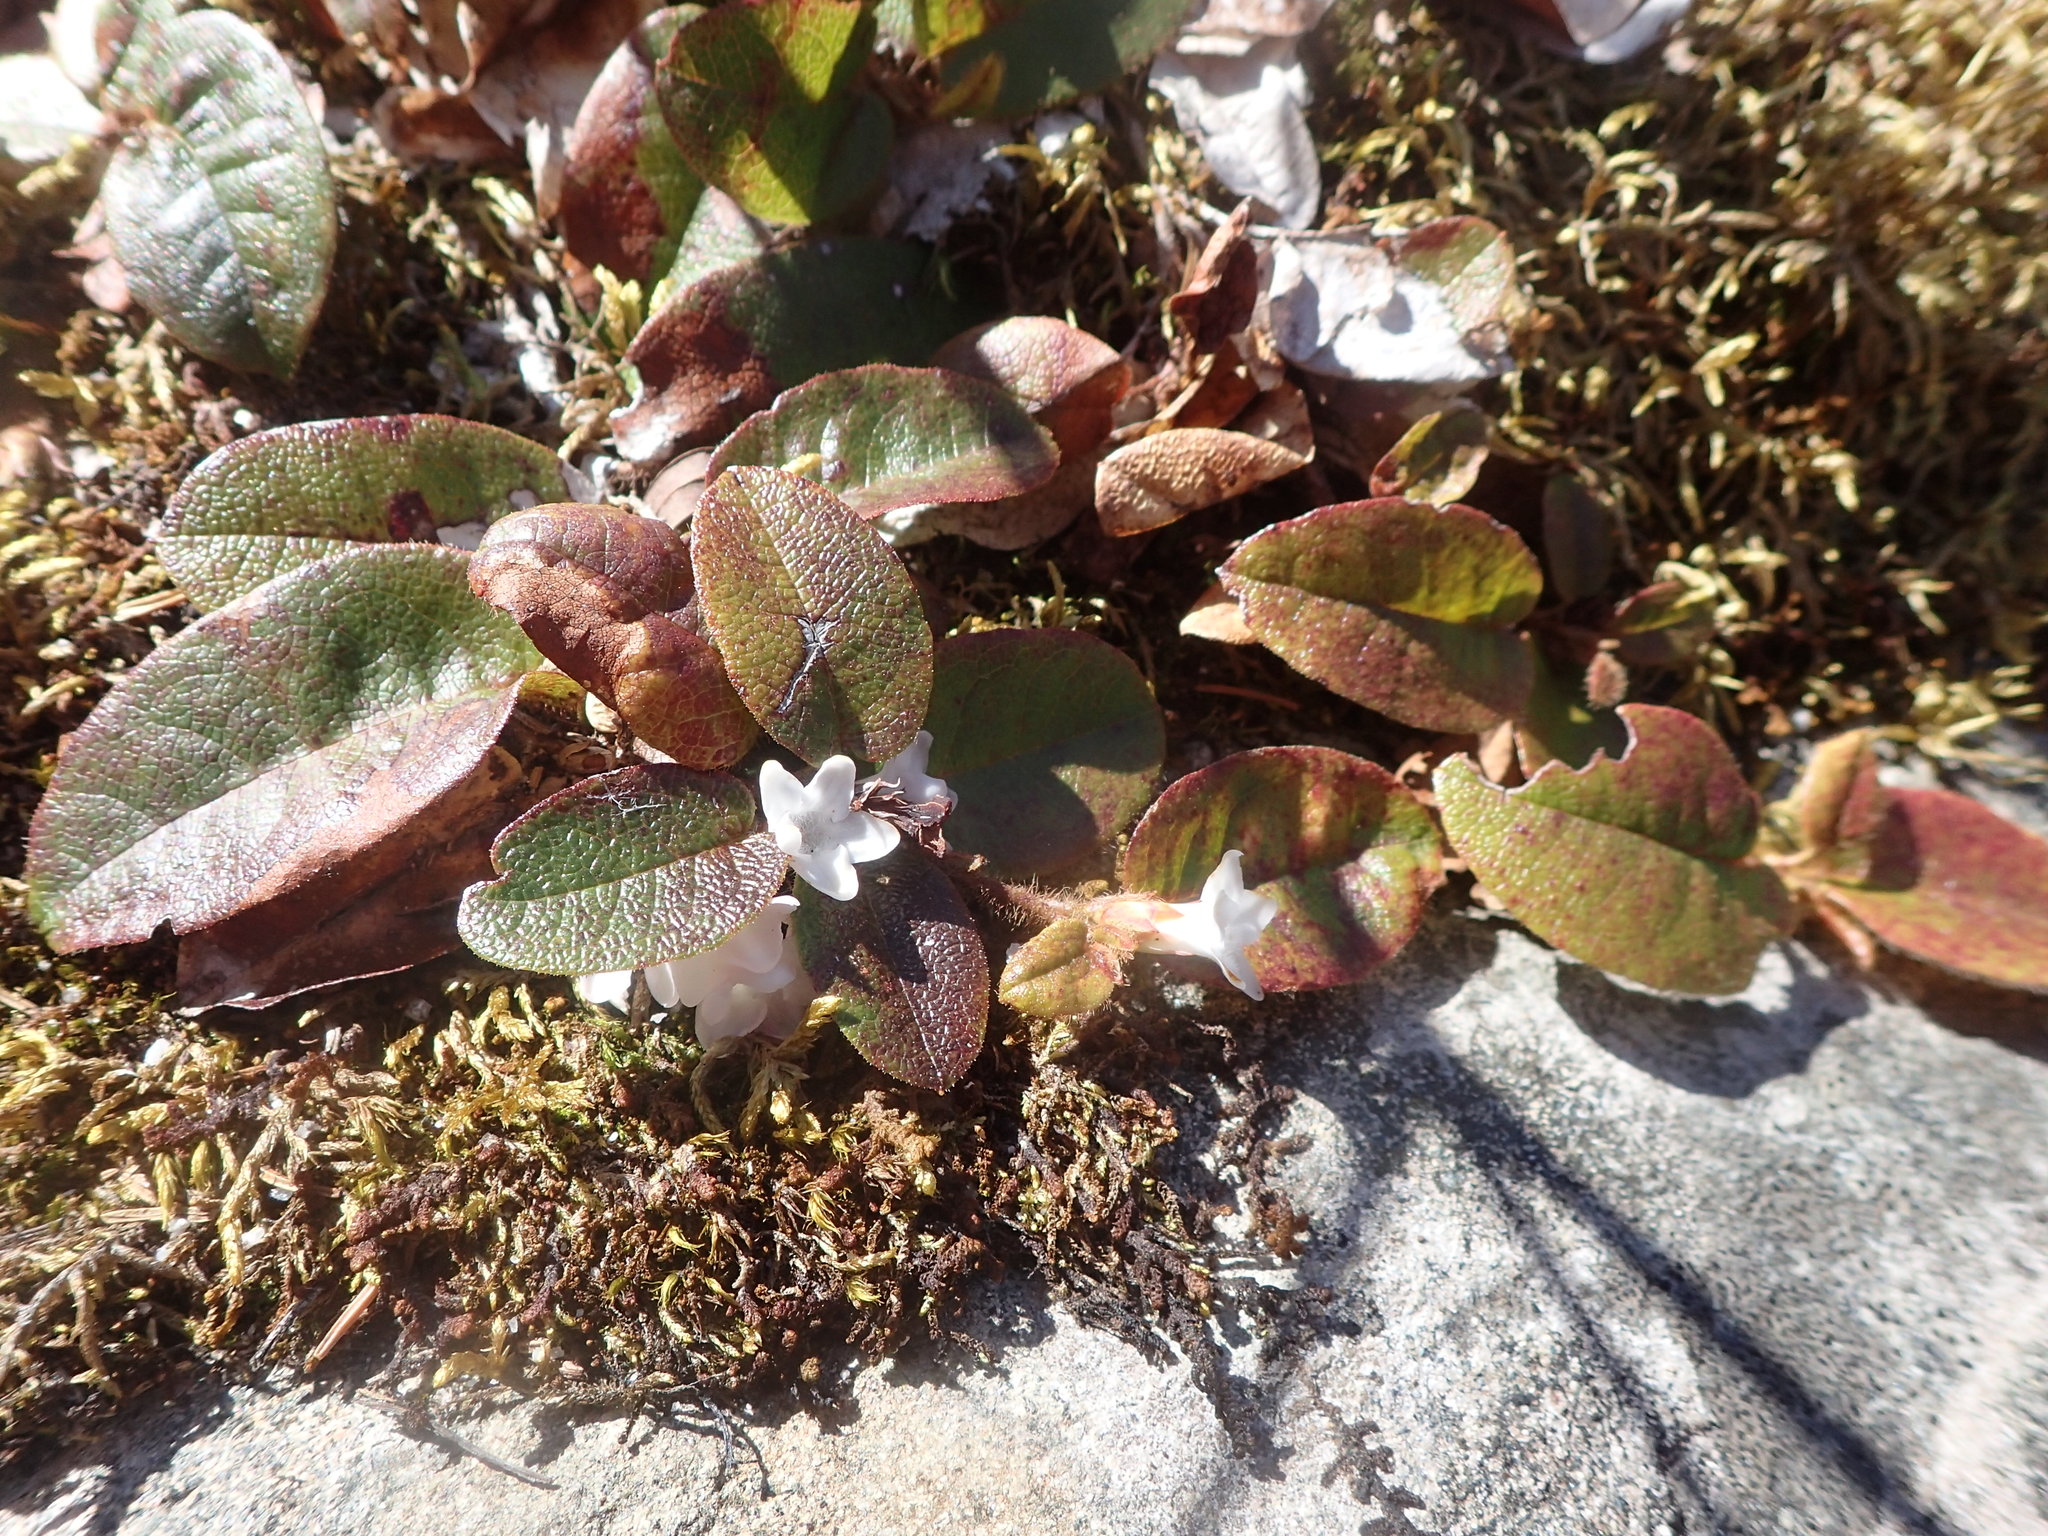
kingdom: Plantae
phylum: Tracheophyta
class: Magnoliopsida
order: Ericales
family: Ericaceae
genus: Epigaea
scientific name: Epigaea repens
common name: Gravelroot
